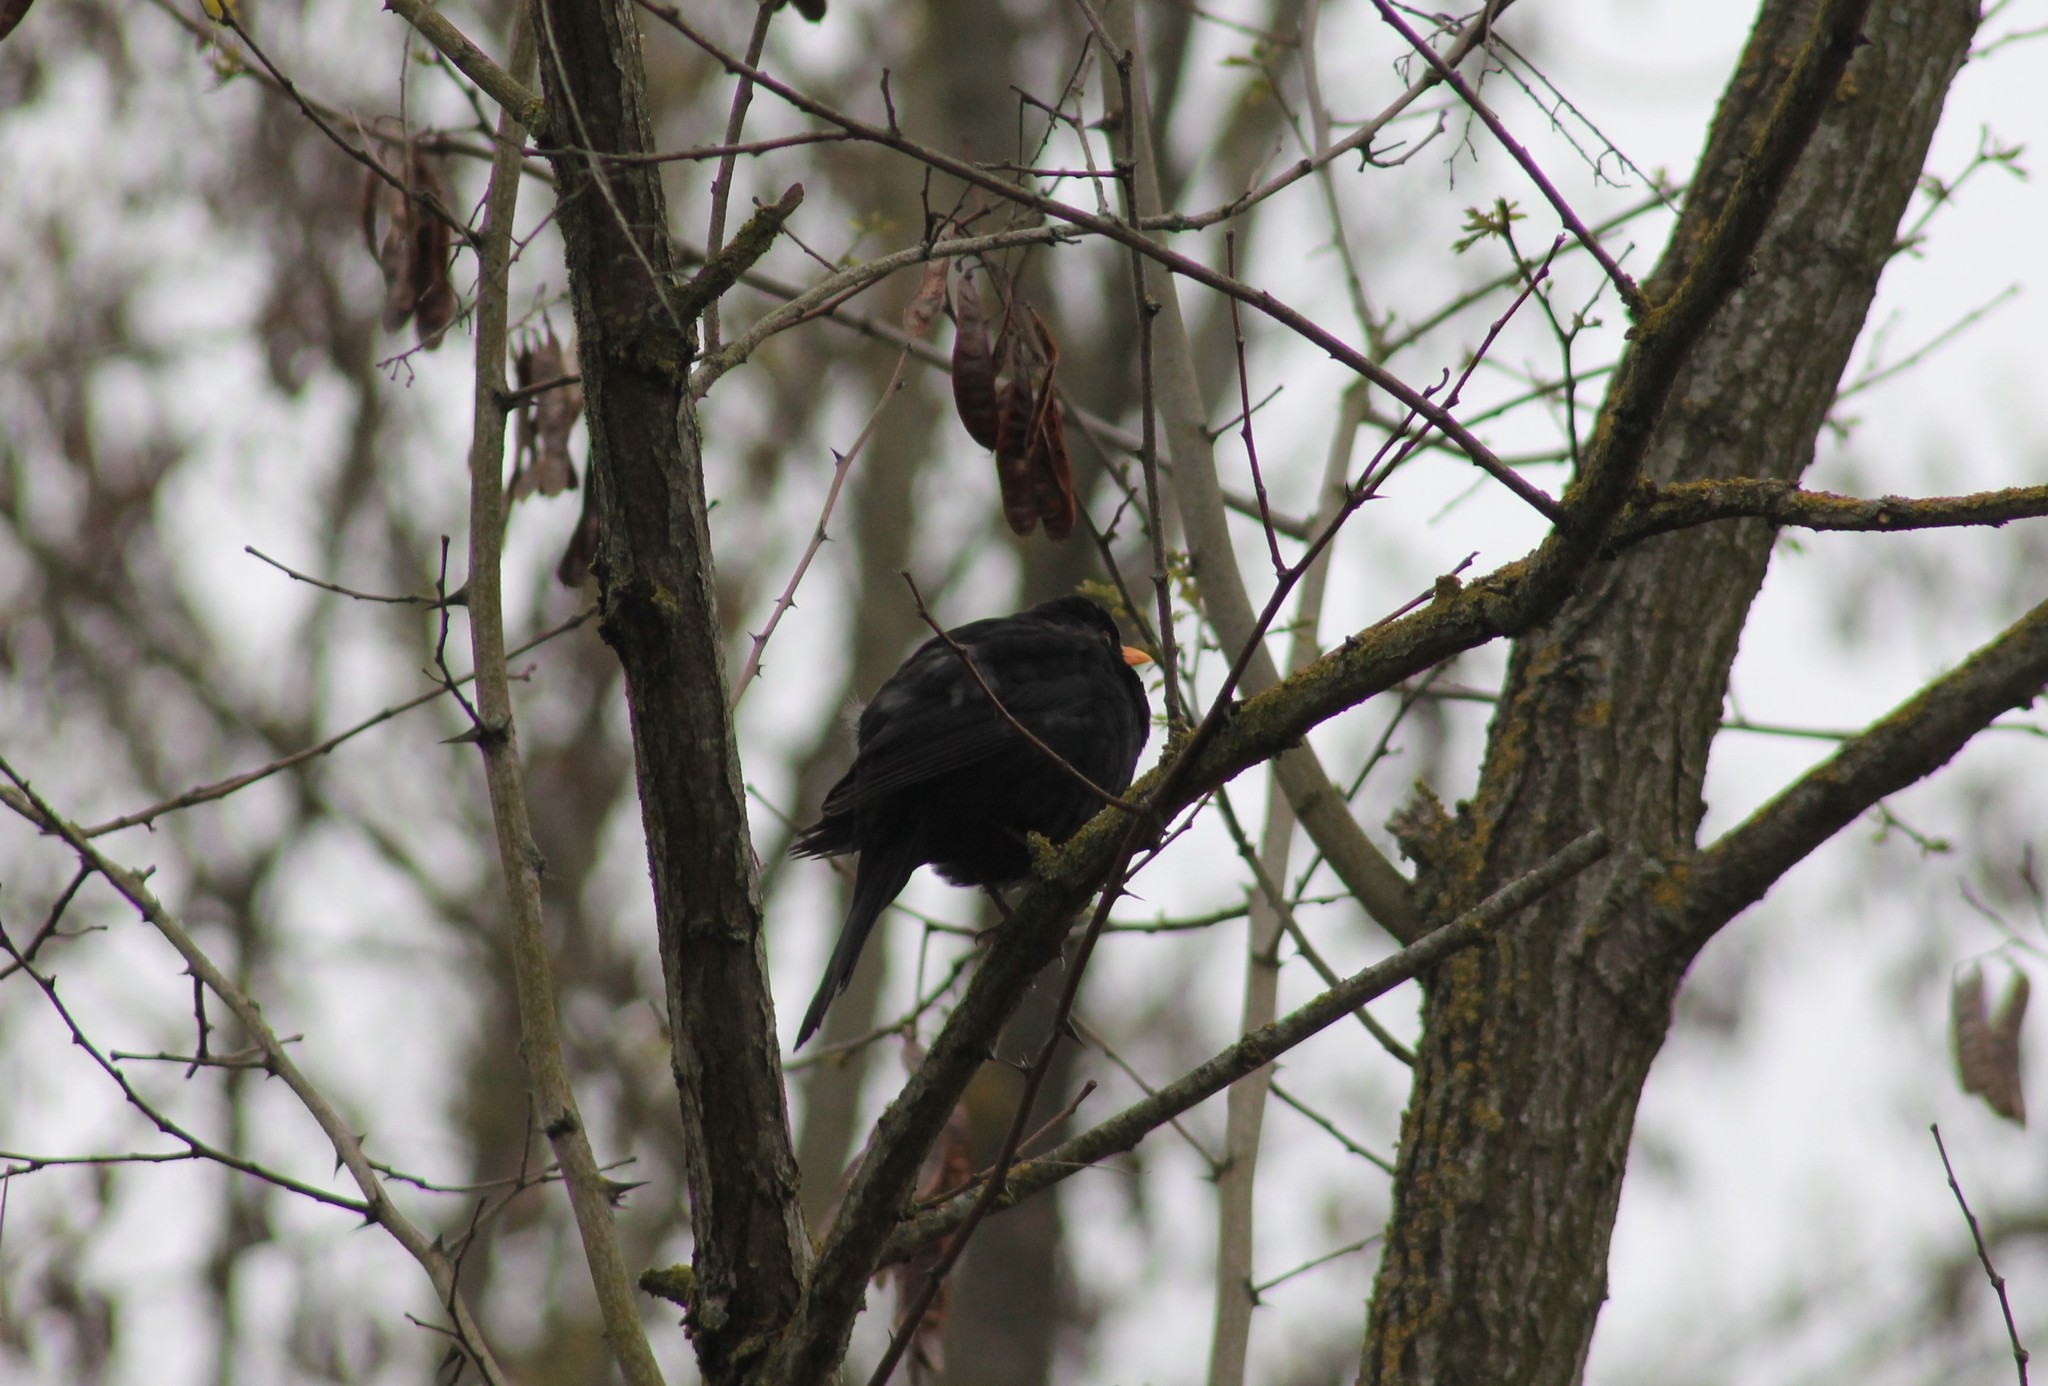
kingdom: Animalia
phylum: Chordata
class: Aves
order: Passeriformes
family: Turdidae
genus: Turdus
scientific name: Turdus merula
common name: Common blackbird
